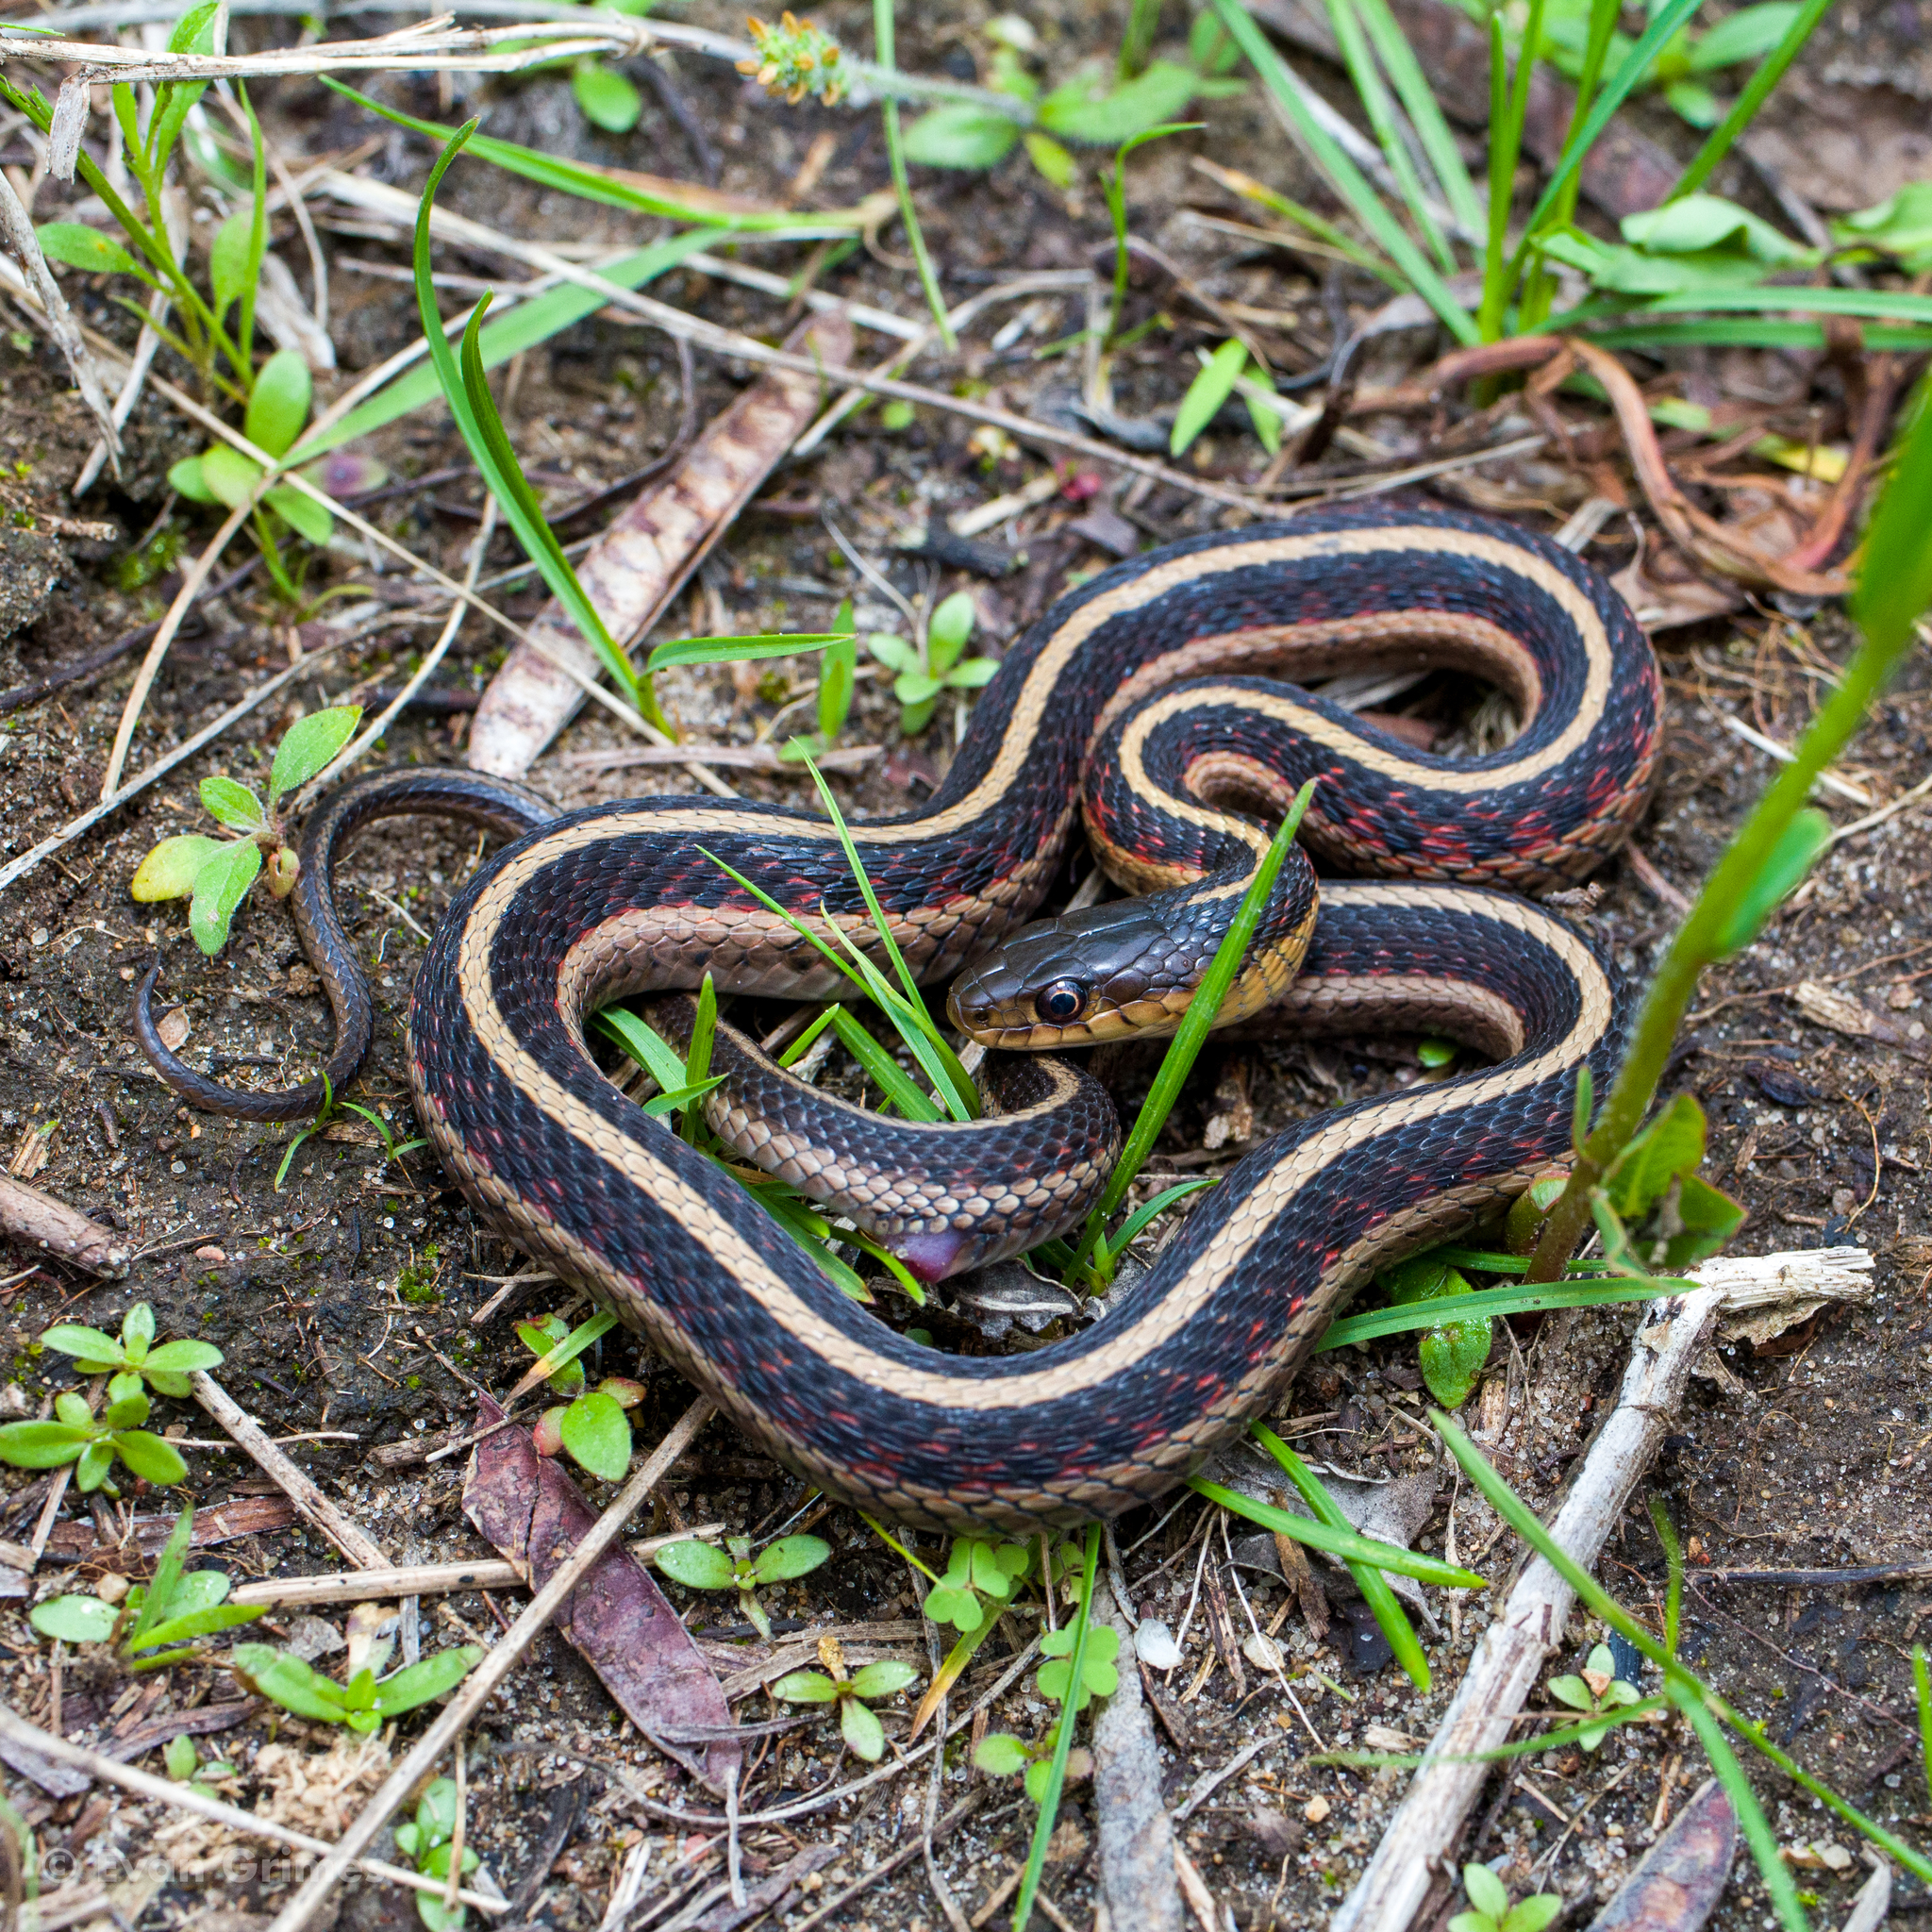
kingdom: Animalia
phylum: Chordata
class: Squamata
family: Colubridae
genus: Thamnophis
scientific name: Thamnophis sirtalis
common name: Common garter snake
